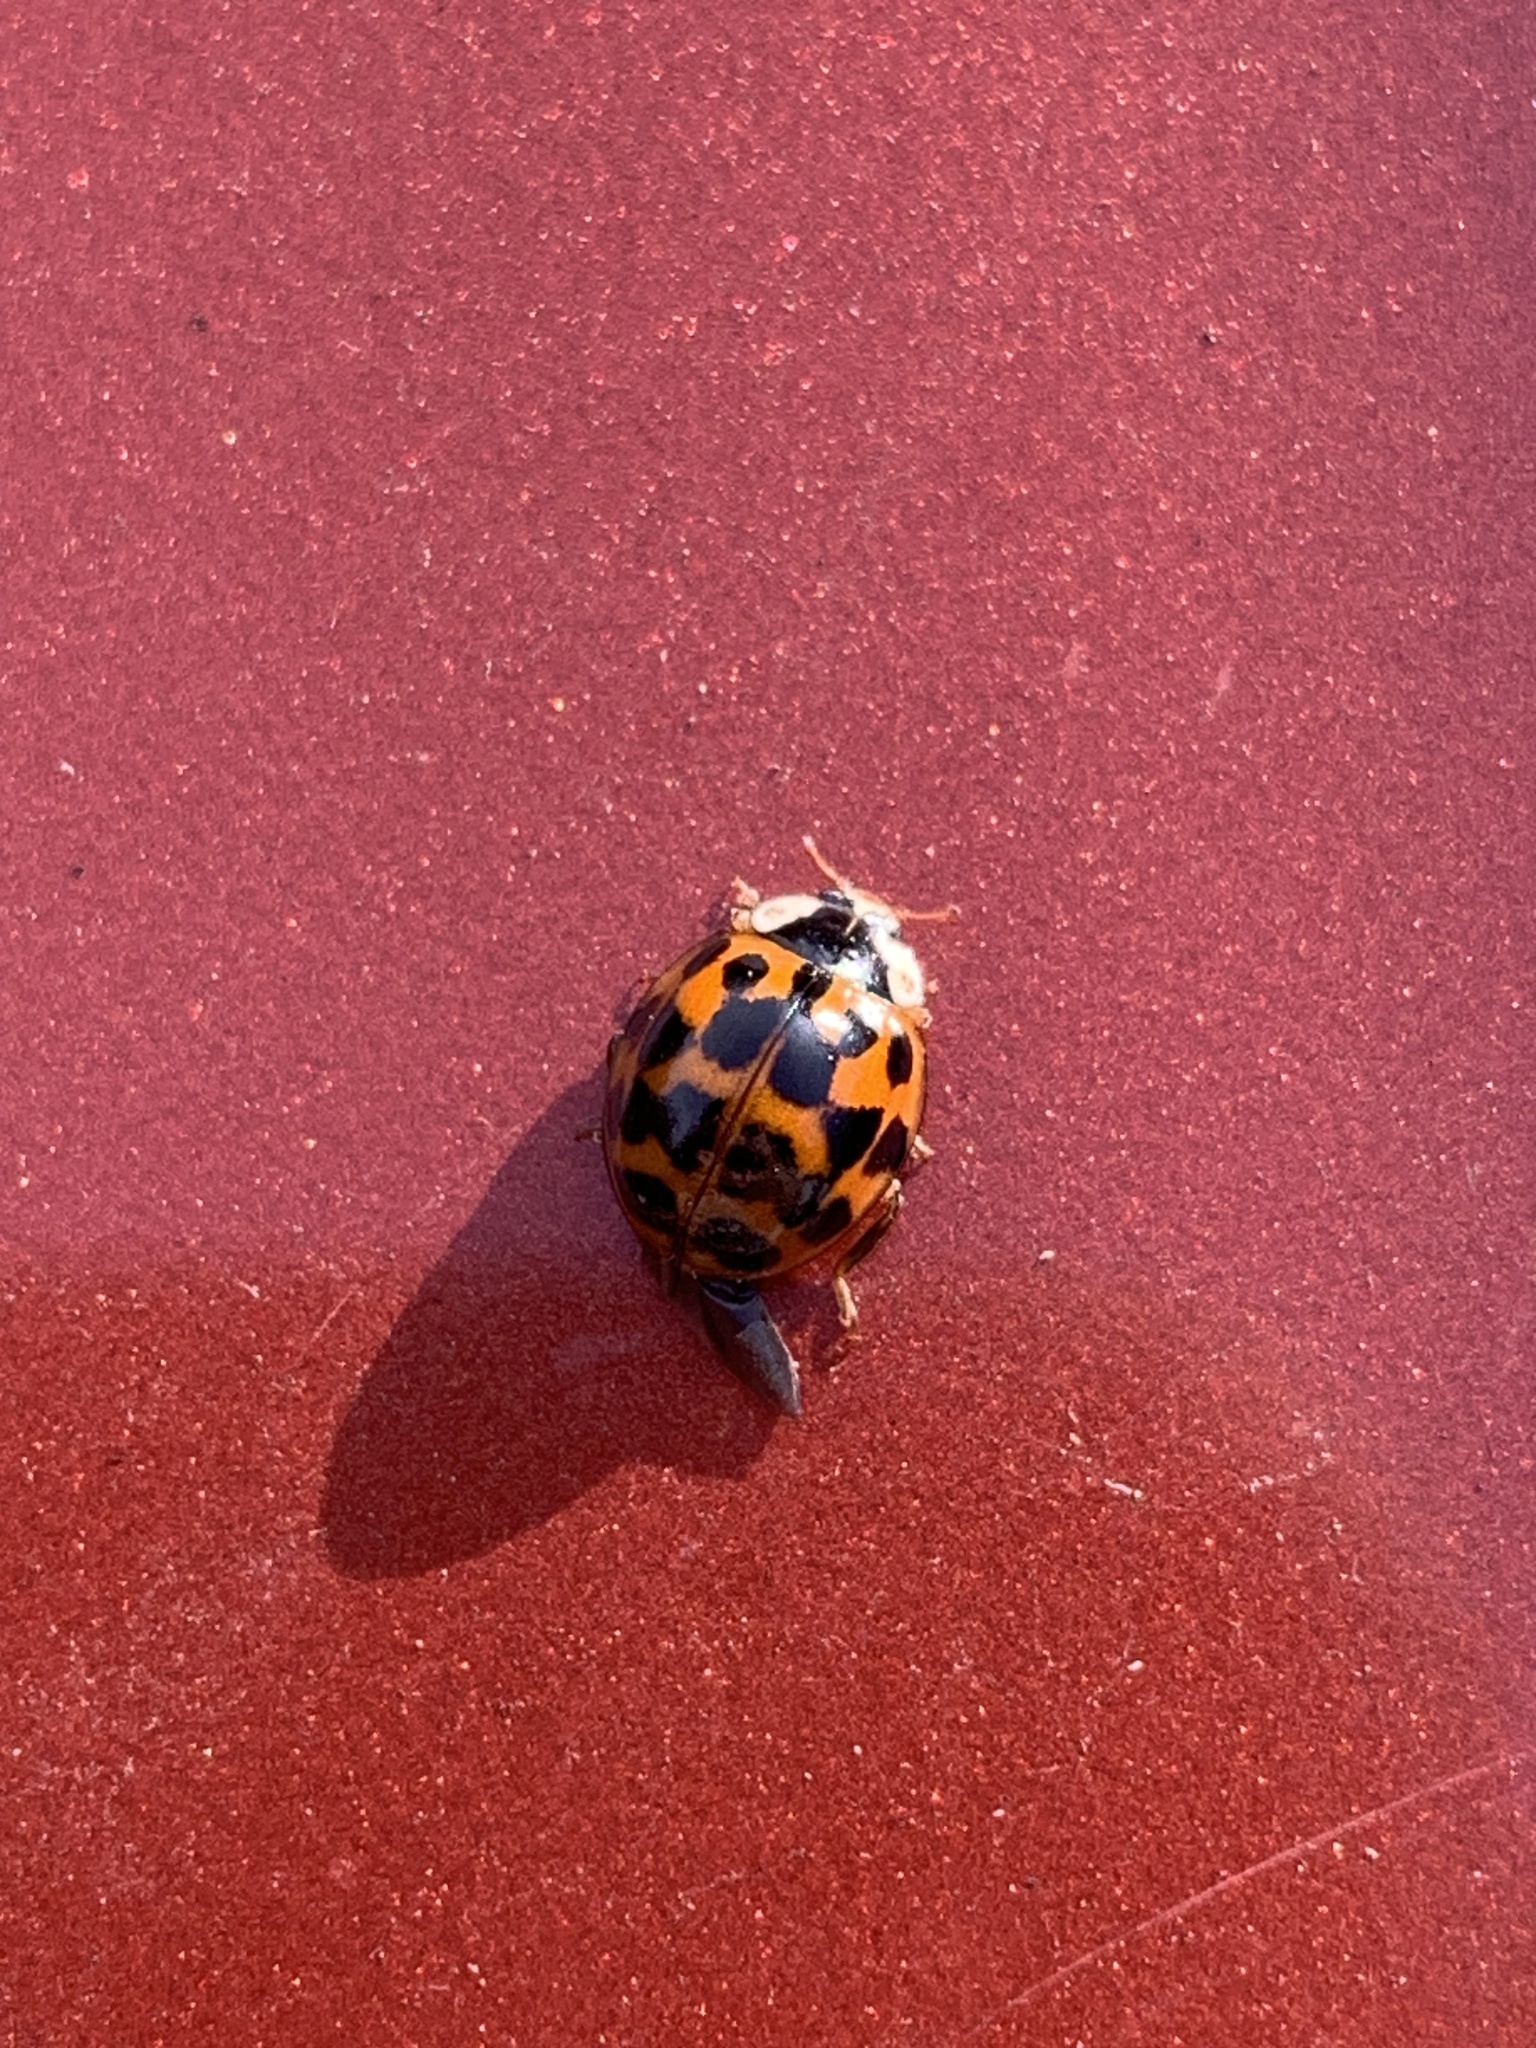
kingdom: Animalia
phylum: Arthropoda
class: Insecta
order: Coleoptera
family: Coccinellidae
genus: Harmonia
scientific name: Harmonia axyridis
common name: Harlequin ladybird
